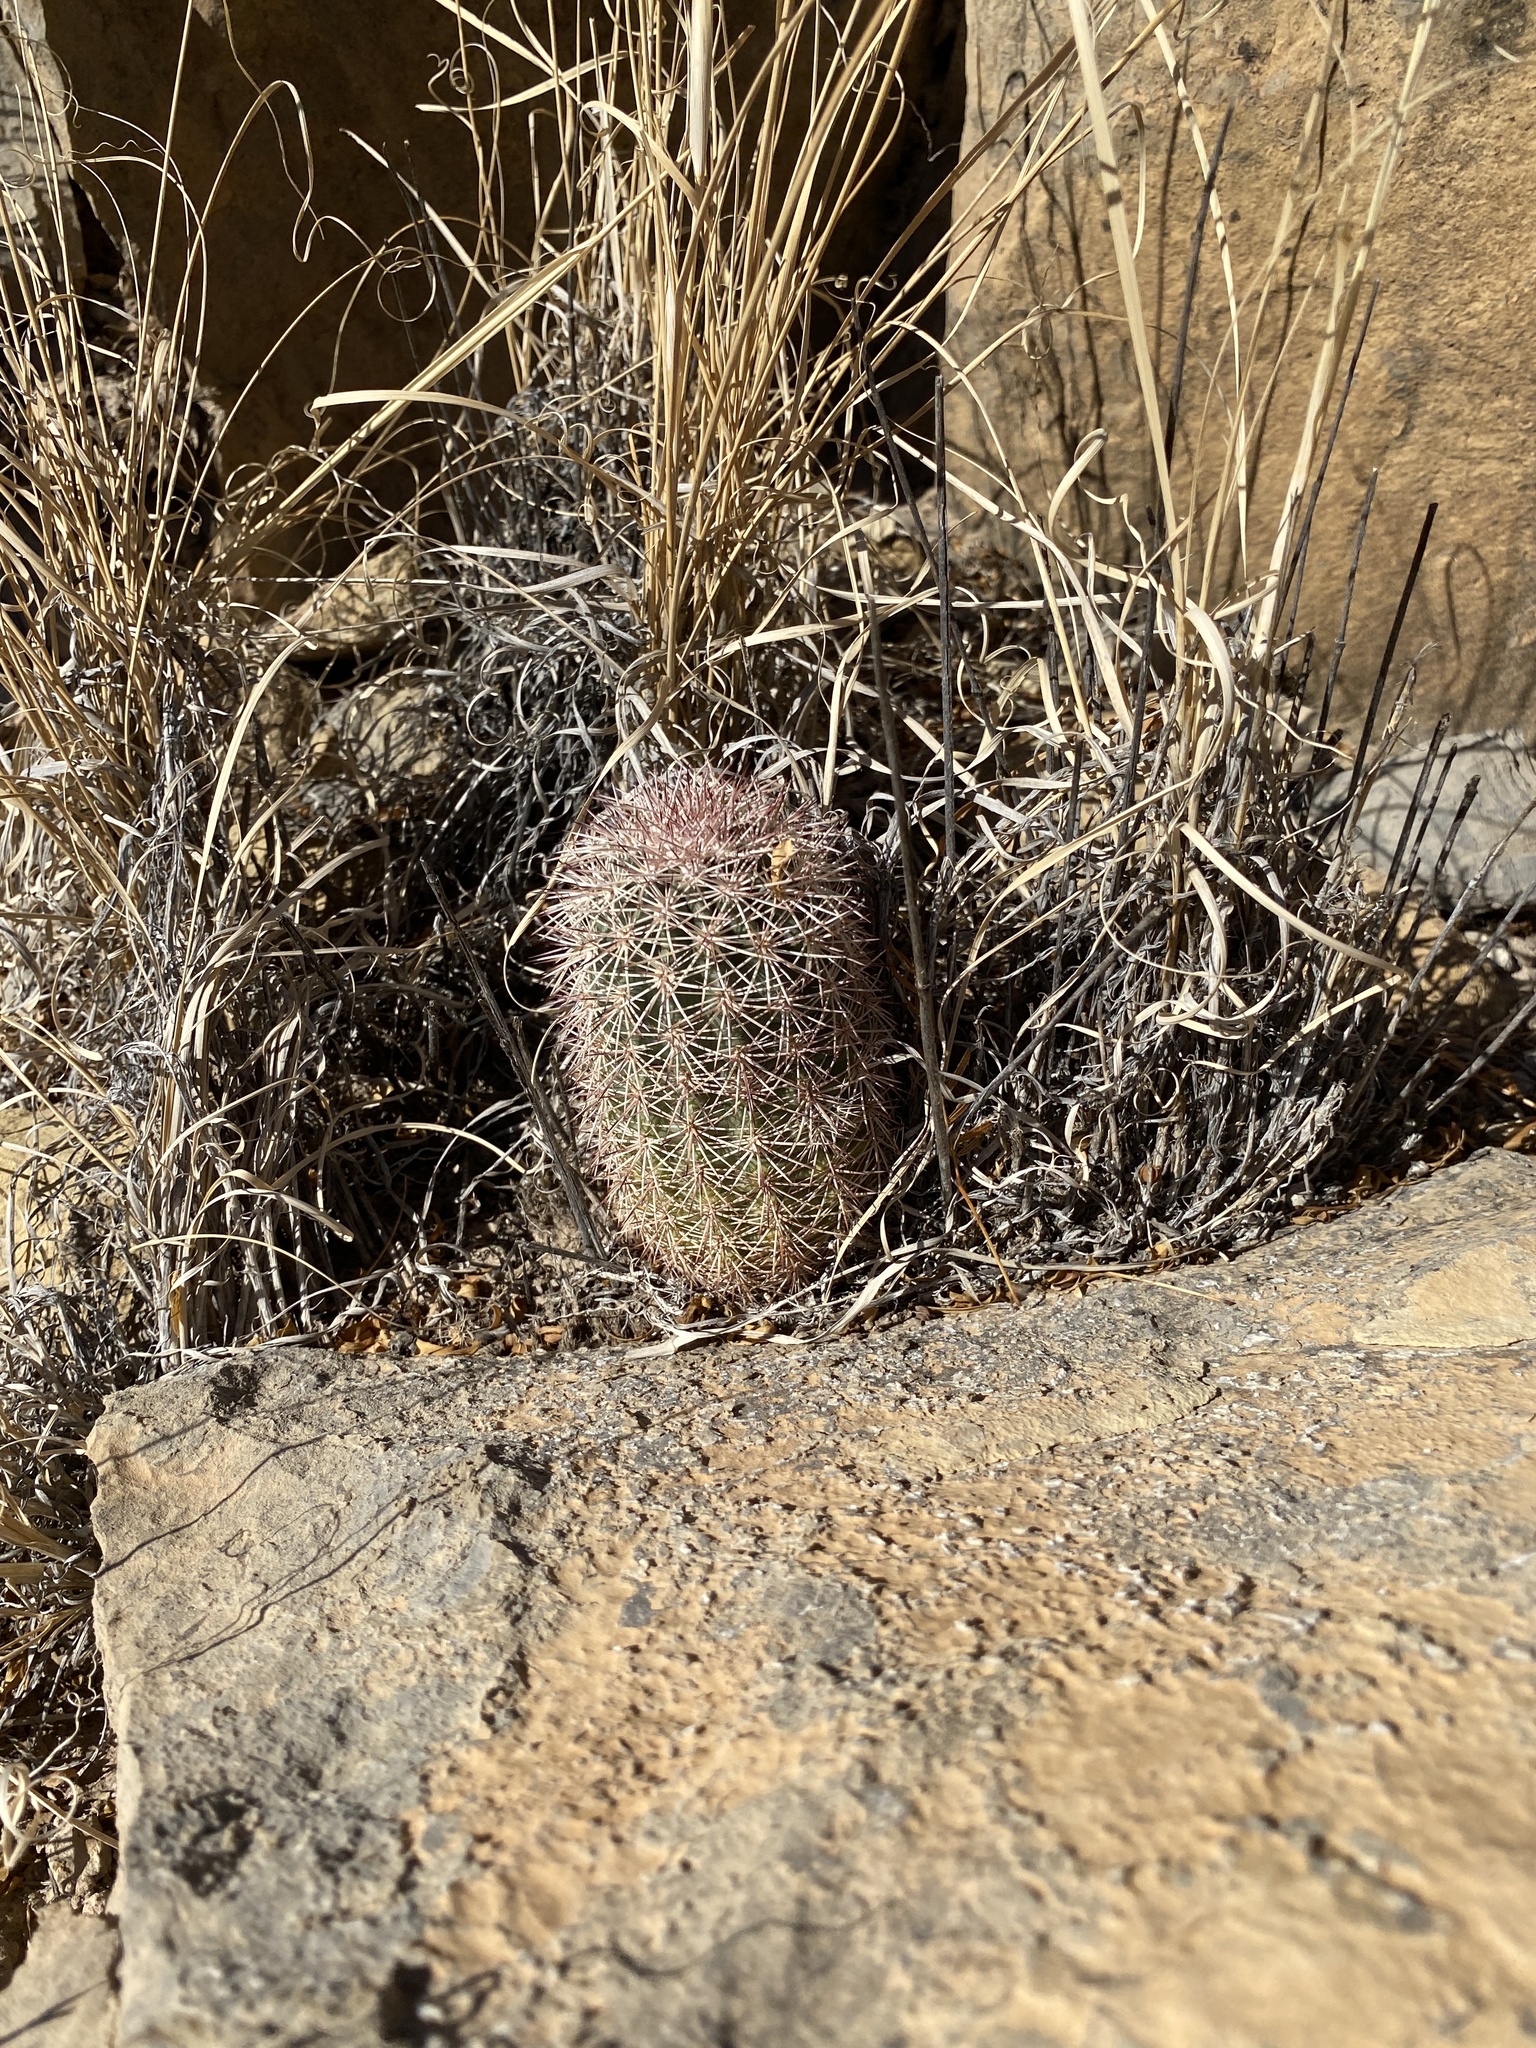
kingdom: Plantae
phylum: Tracheophyta
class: Magnoliopsida
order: Caryophyllales
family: Cactaceae
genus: Echinocereus
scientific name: Echinocereus dasyacanthus
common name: Spiny hedgehog cactus
